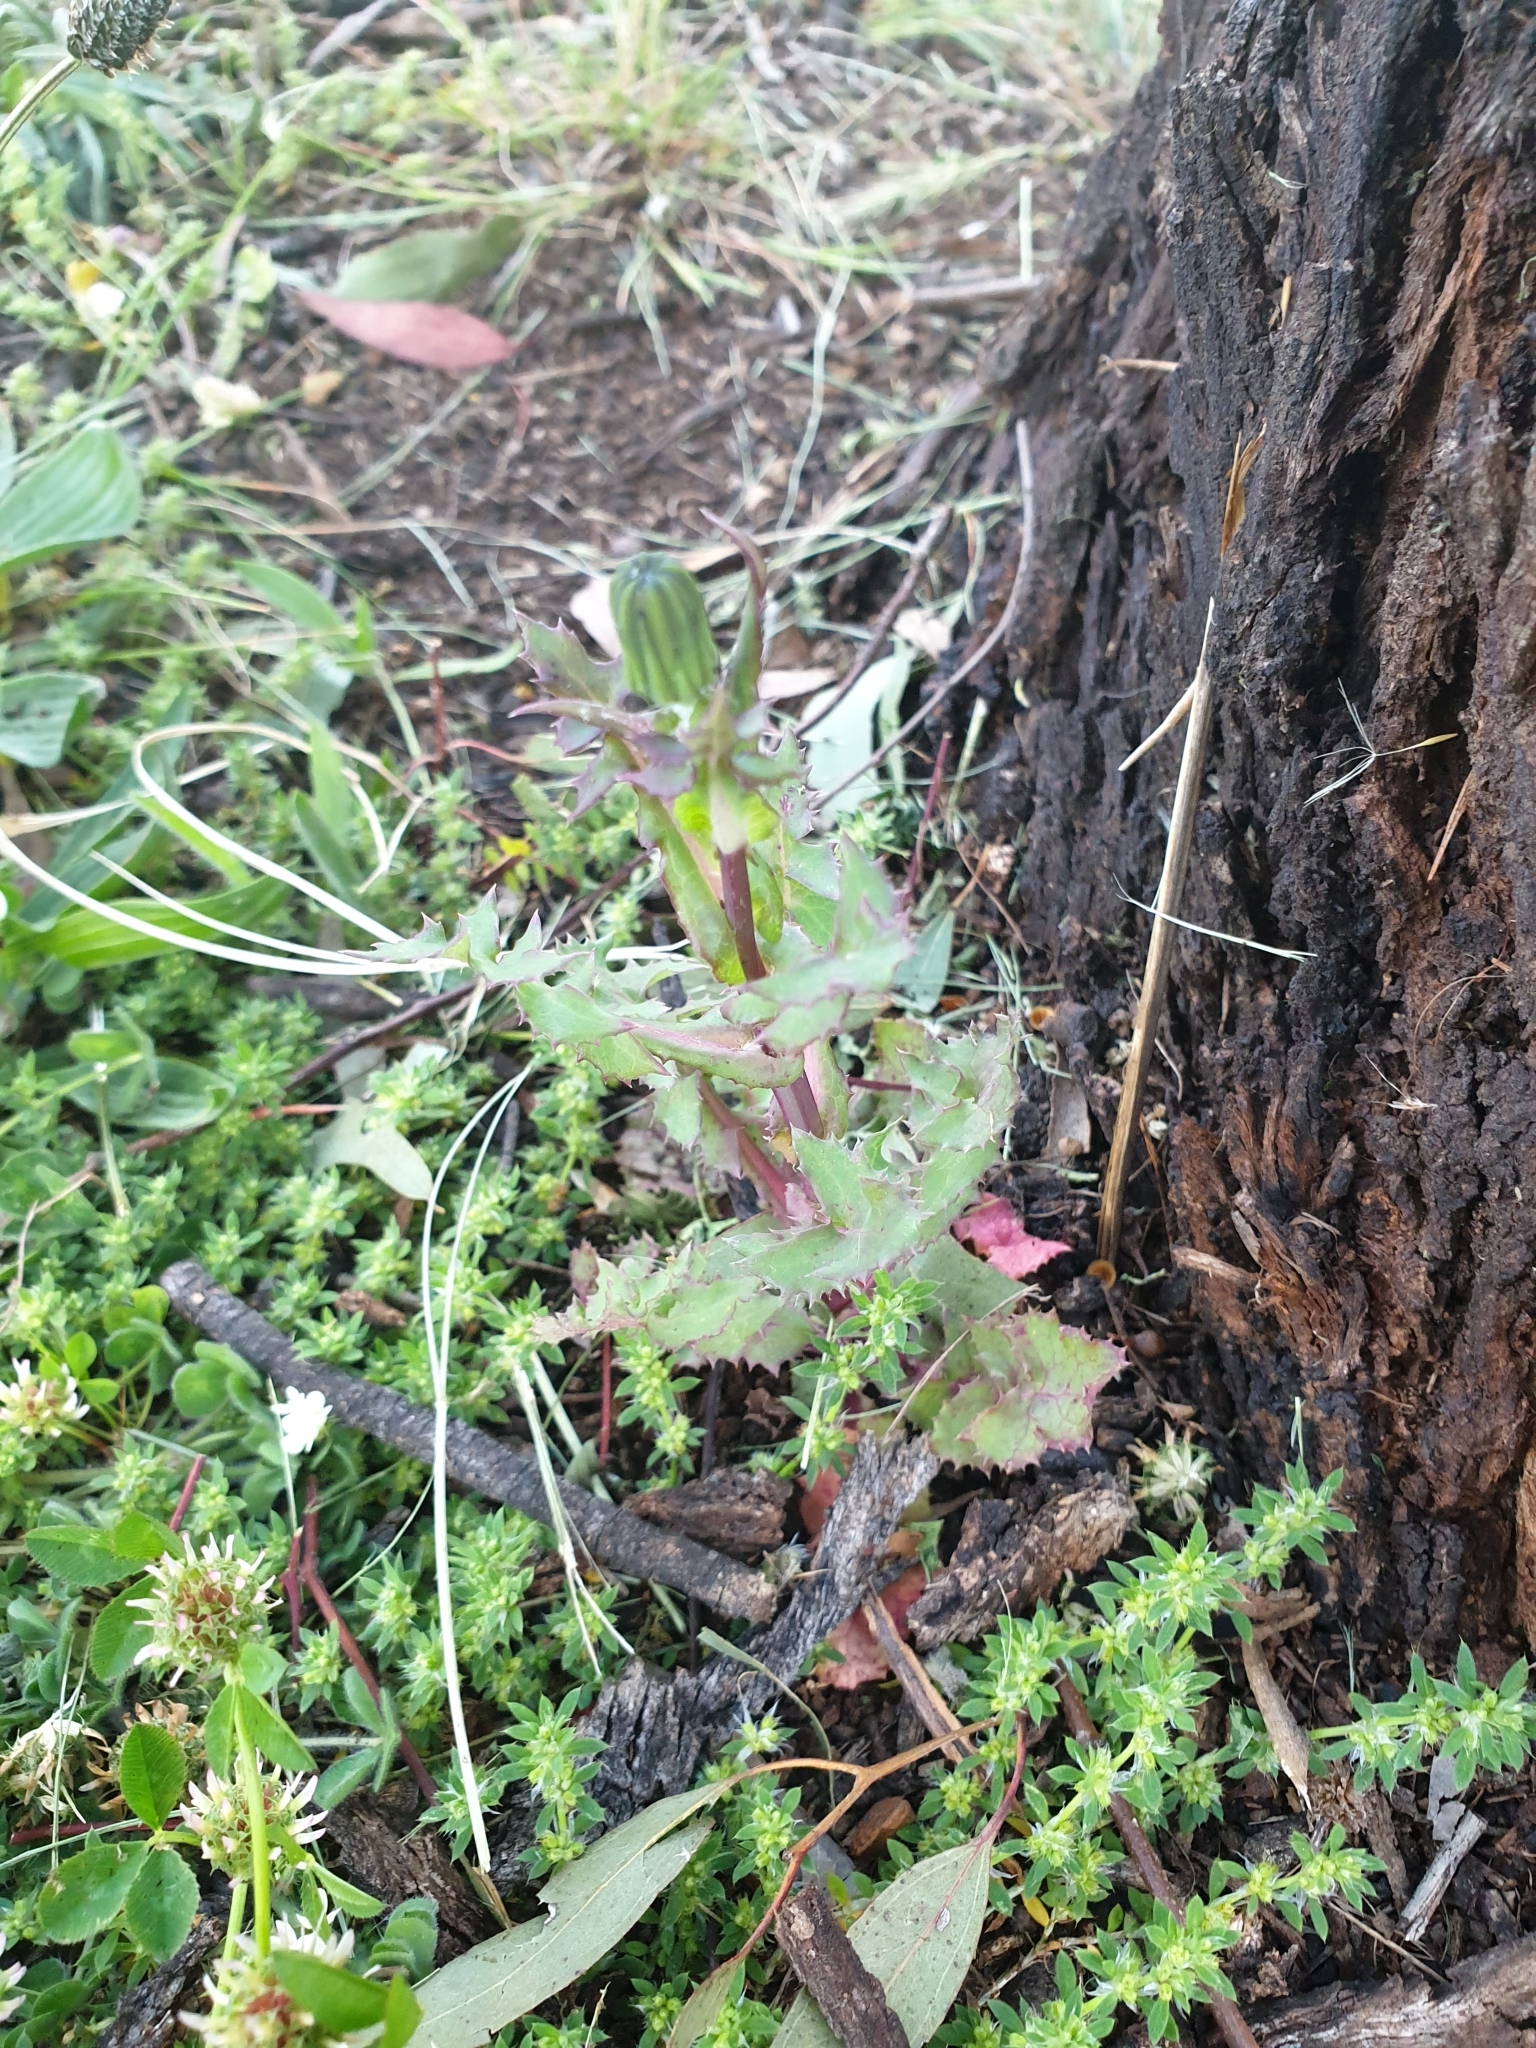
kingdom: Plantae
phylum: Tracheophyta
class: Magnoliopsida
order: Asterales
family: Asteraceae
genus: Sonchus
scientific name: Sonchus oleraceus
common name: Common sowthistle
